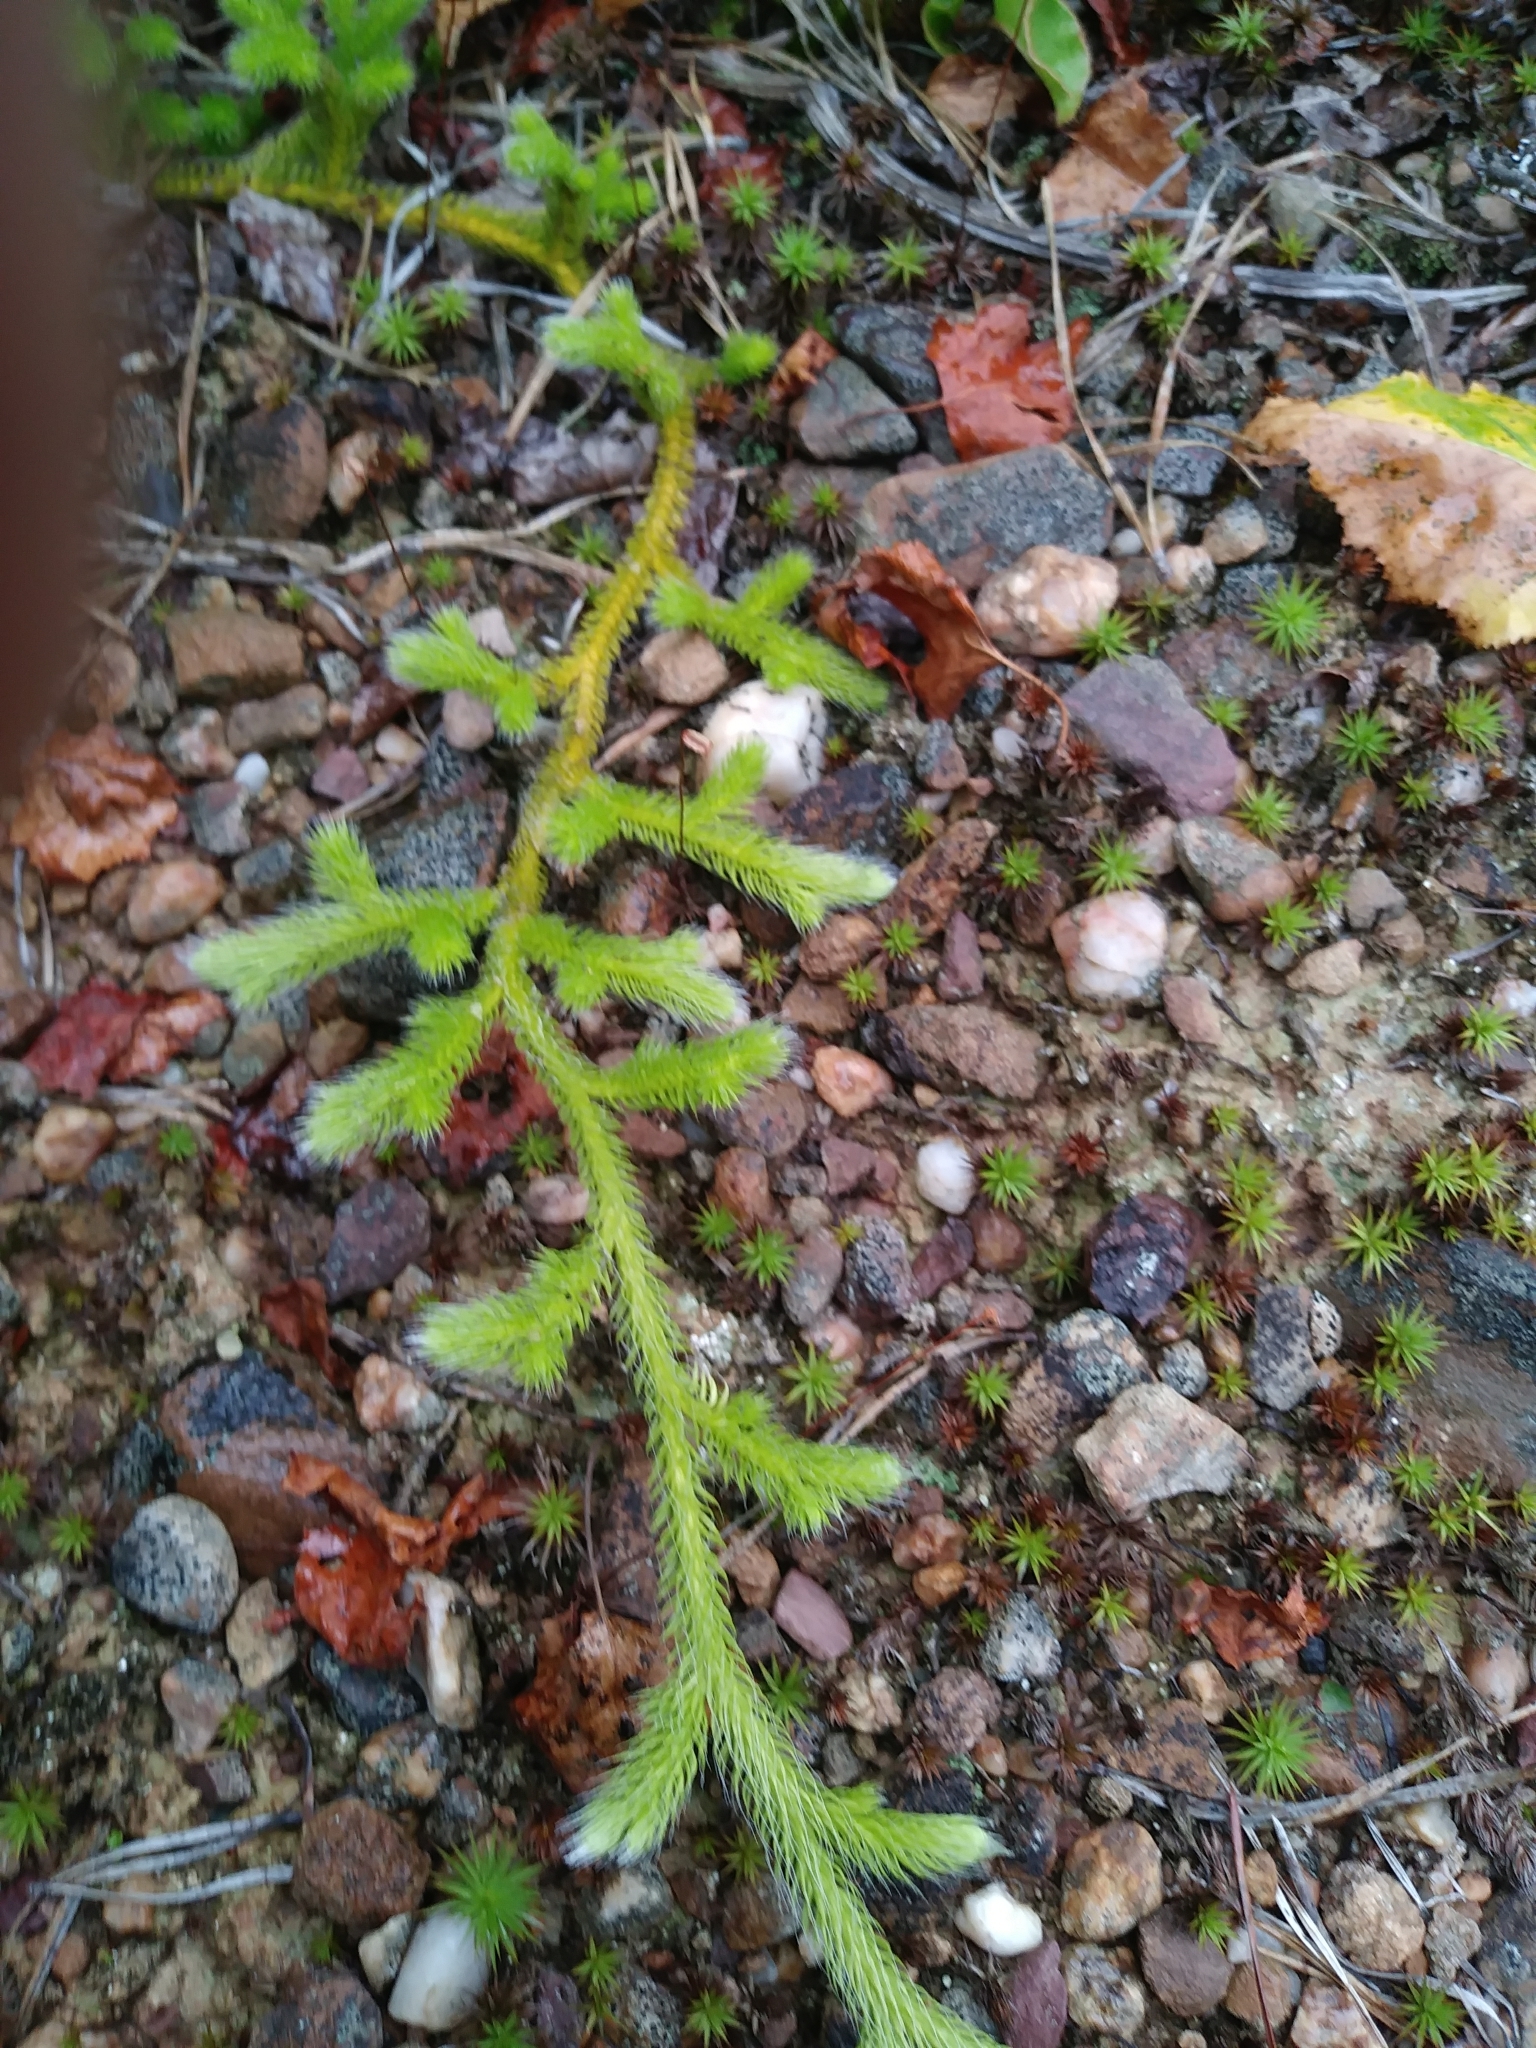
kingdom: Plantae
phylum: Tracheophyta
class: Lycopodiopsida
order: Lycopodiales
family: Lycopodiaceae
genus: Lycopodium
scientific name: Lycopodium clavatum
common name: Stag's-horn clubmoss
